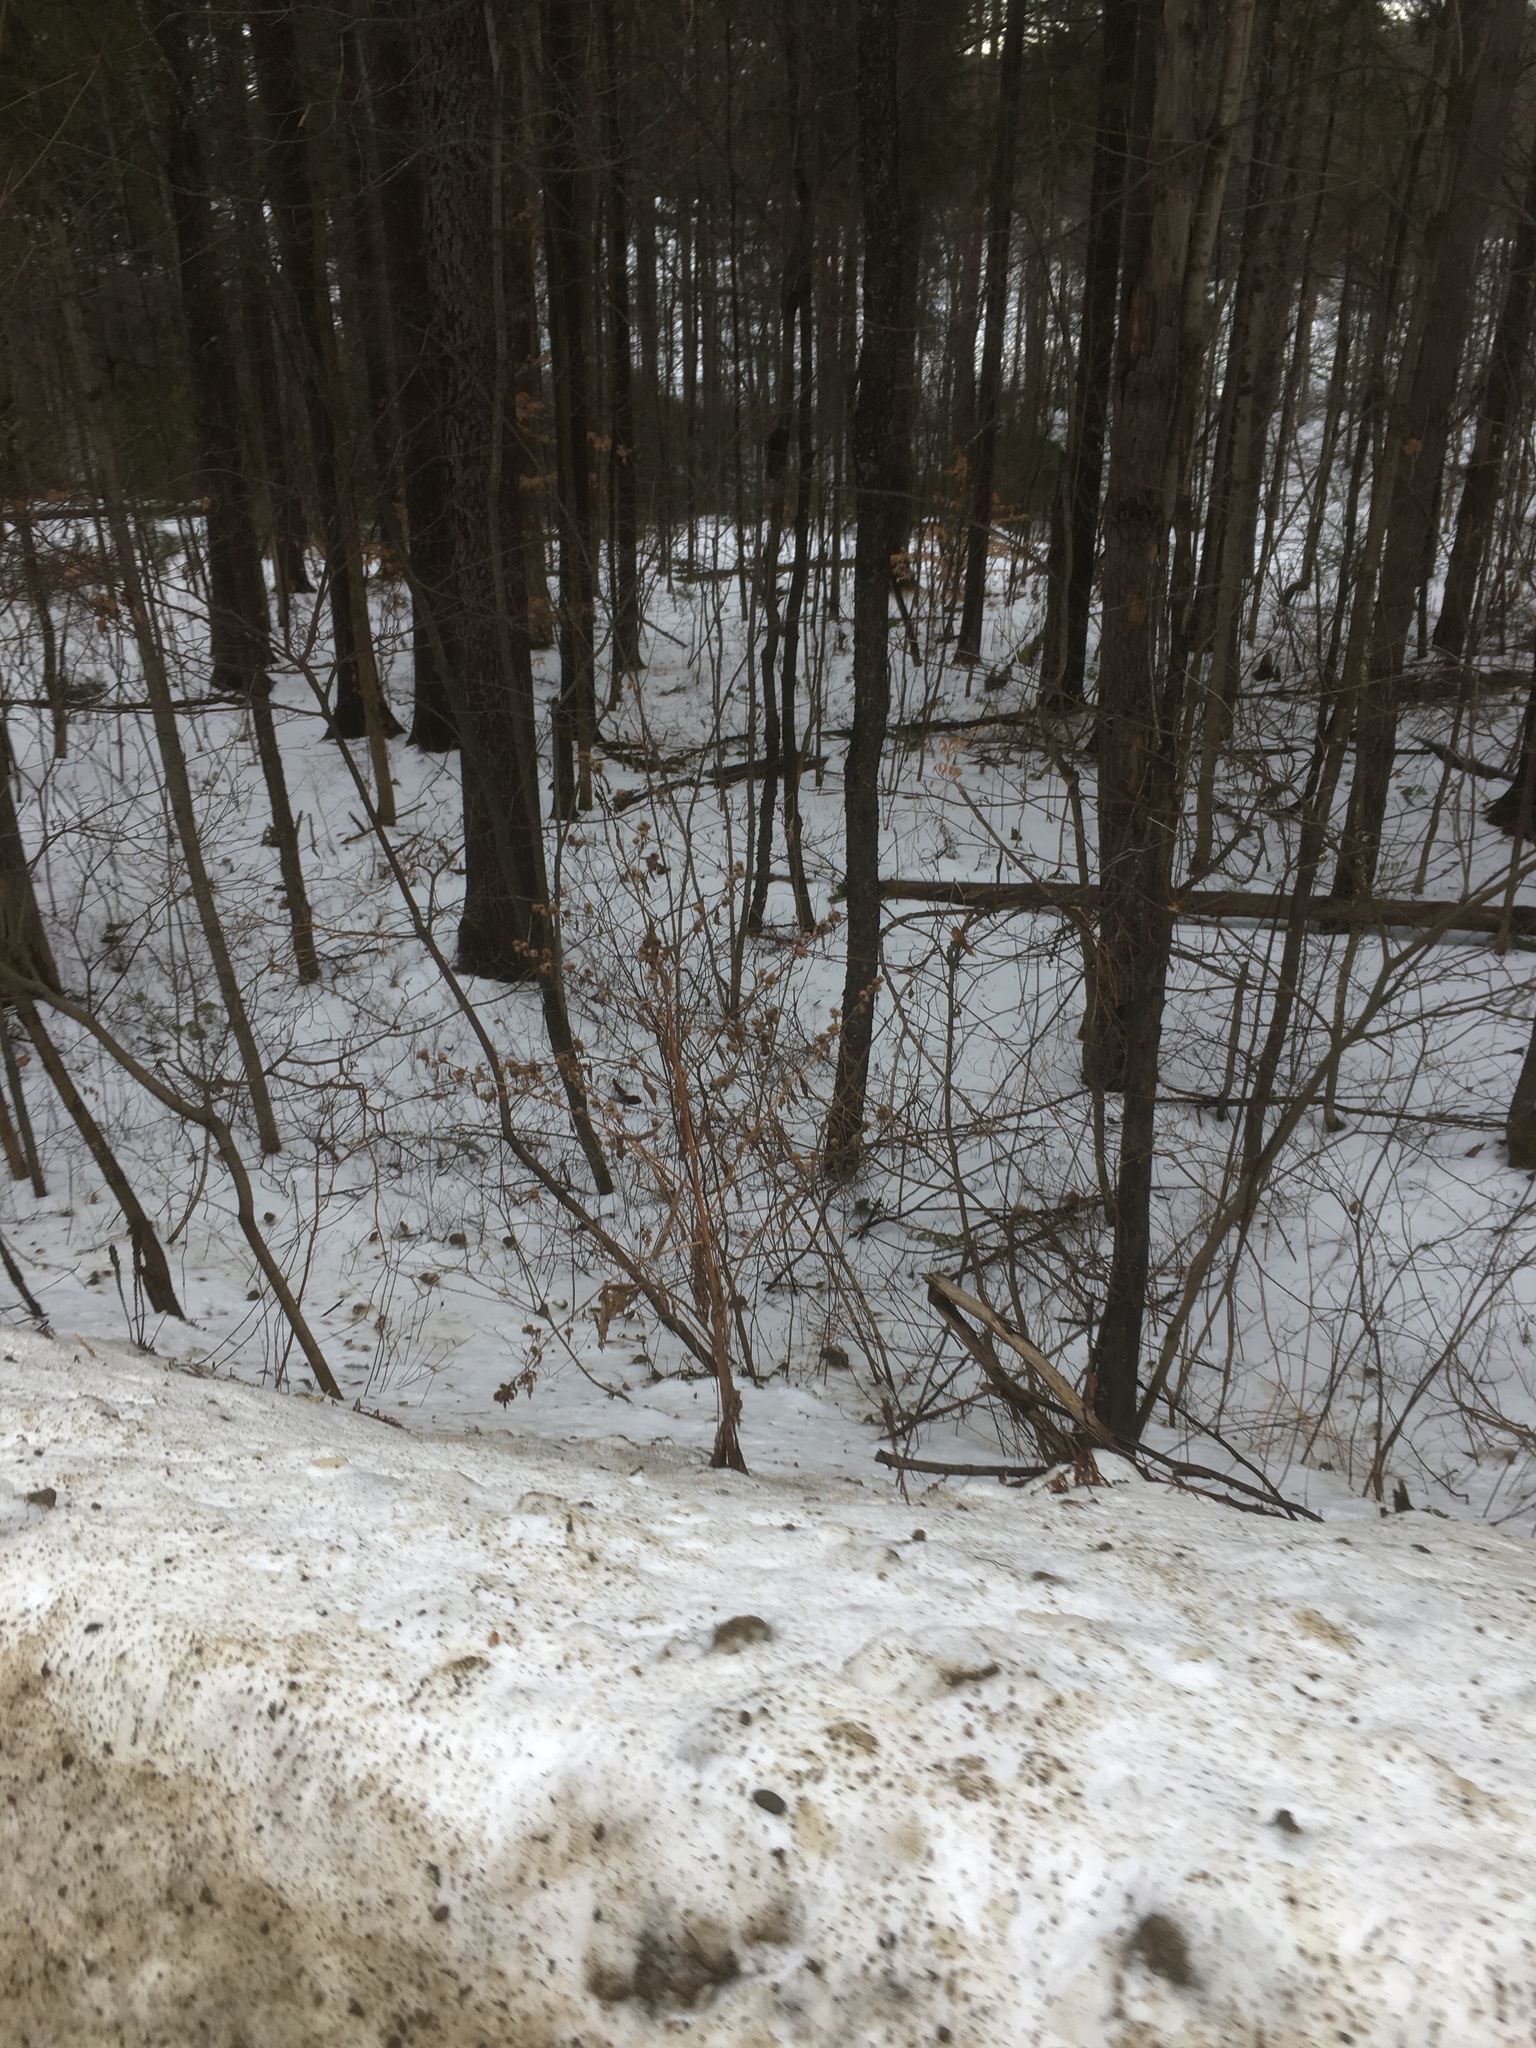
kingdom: Plantae
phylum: Tracheophyta
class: Magnoliopsida
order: Asterales
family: Asteraceae
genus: Arctium
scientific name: Arctium minus
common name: Lesser burdock
